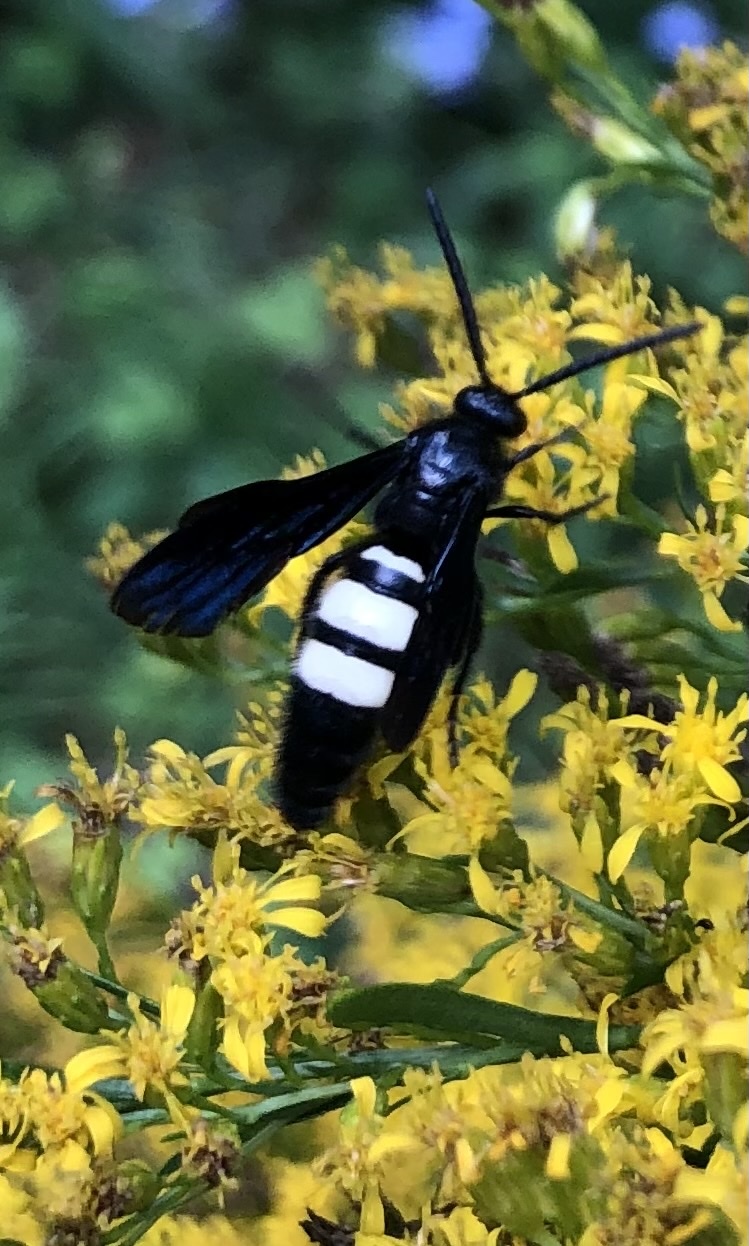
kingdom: Animalia
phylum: Arthropoda
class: Insecta
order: Hymenoptera
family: Scoliidae
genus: Scolia
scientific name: Scolia bicincta
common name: Double-banded scoliid wasp
